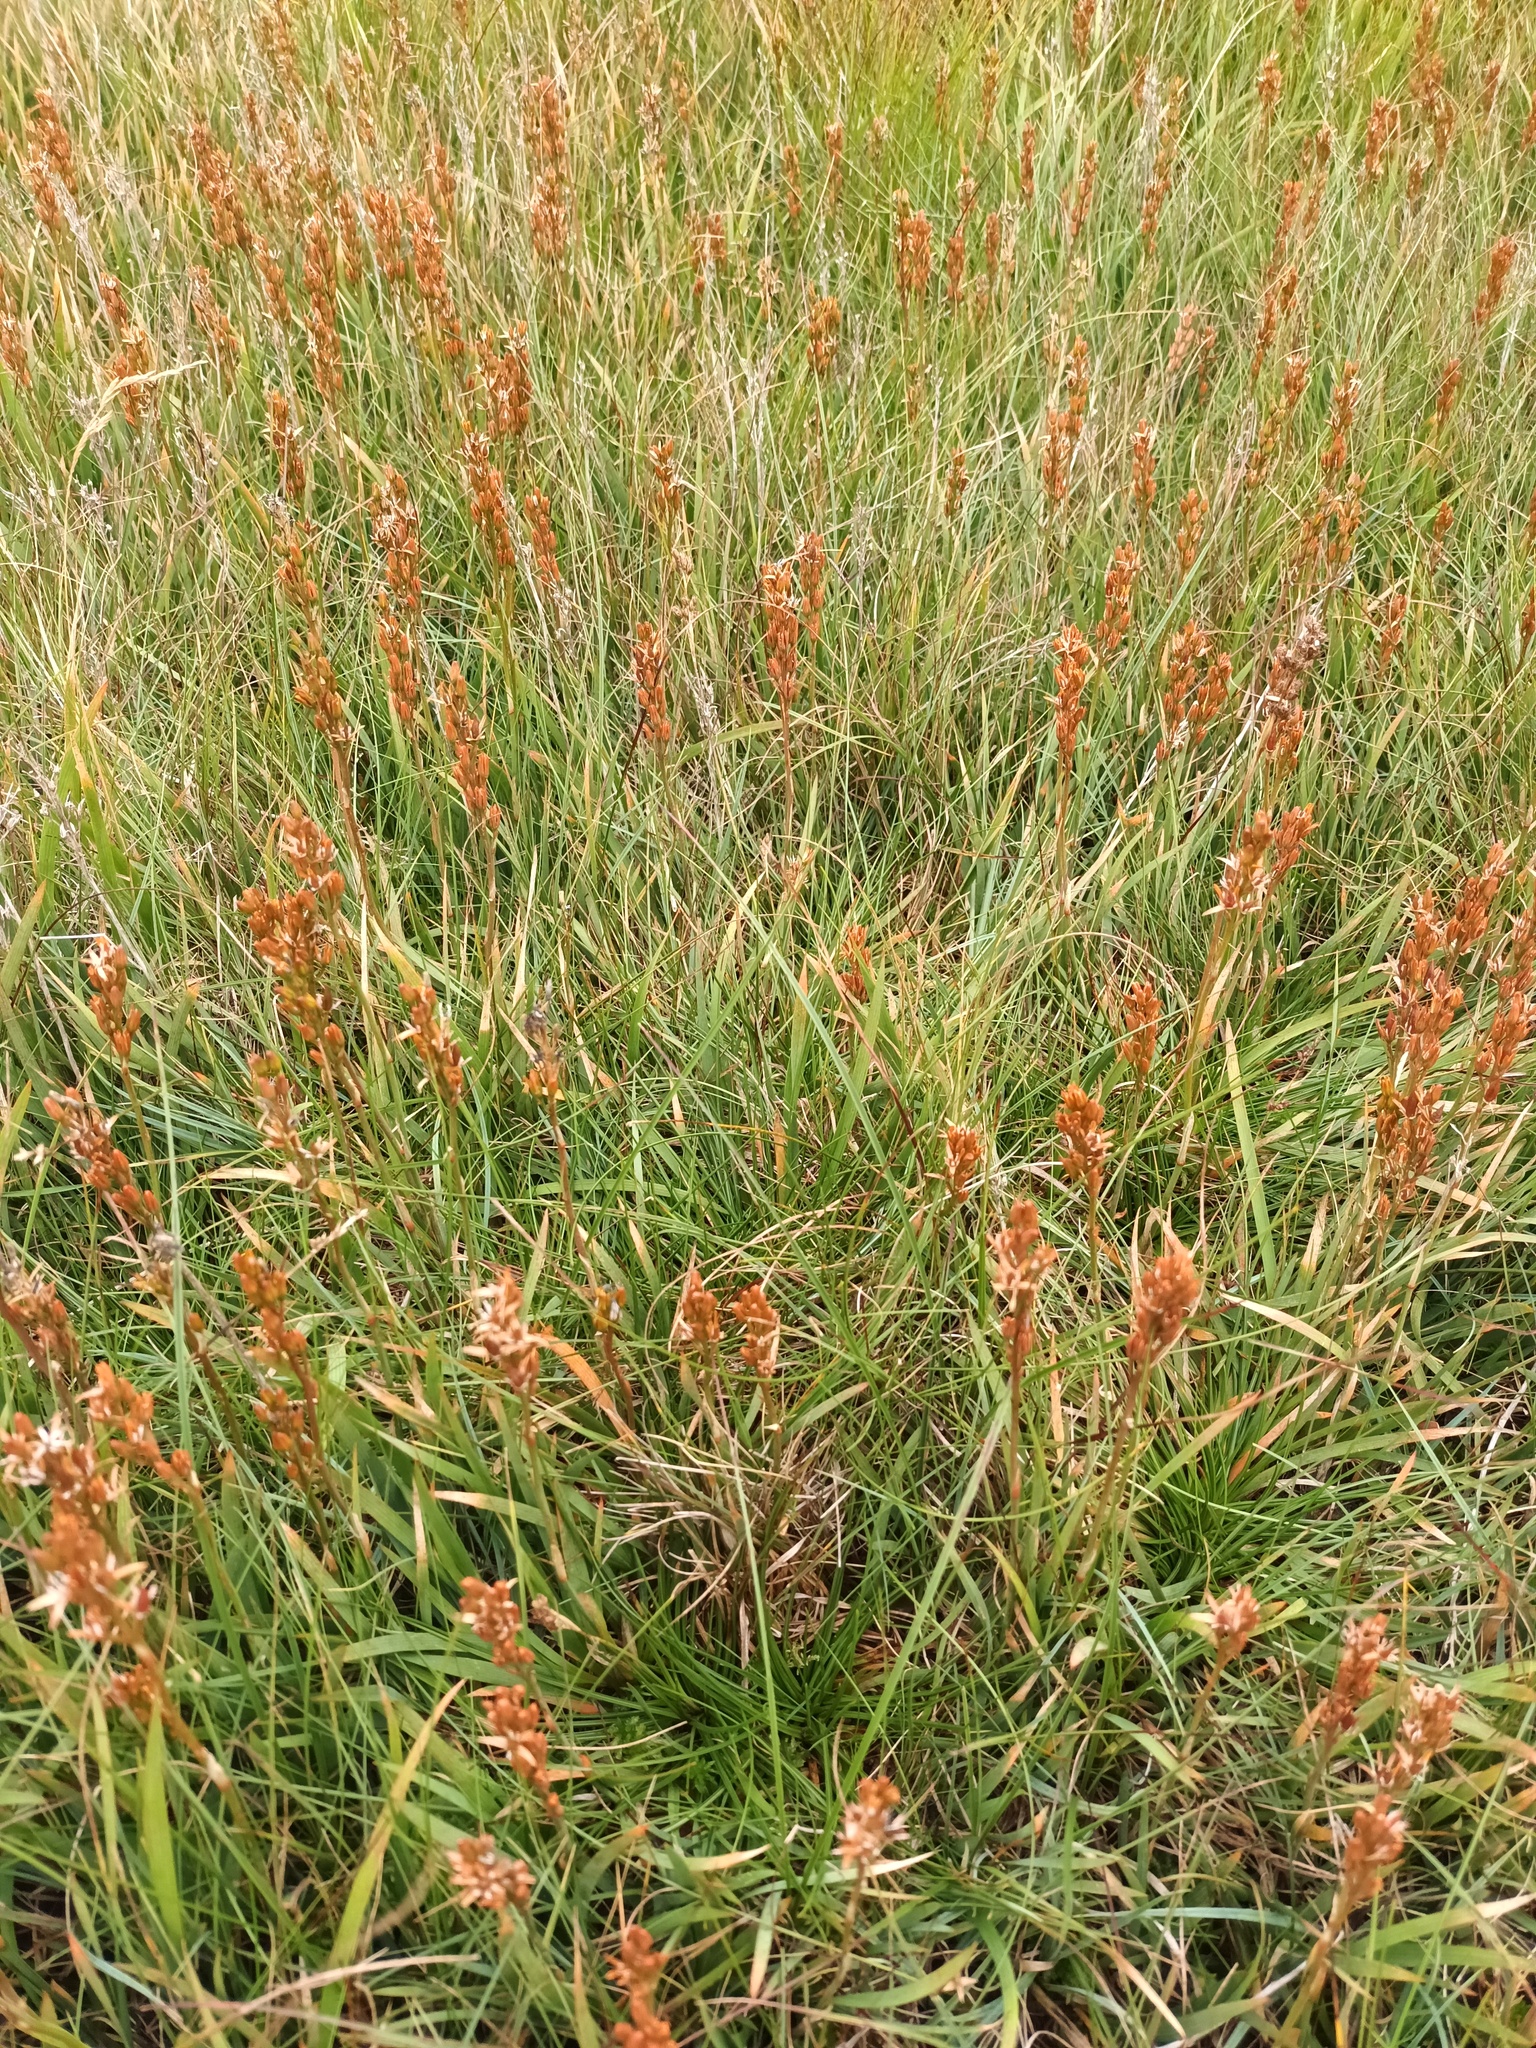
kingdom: Plantae
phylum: Tracheophyta
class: Liliopsida
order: Dioscoreales
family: Nartheciaceae
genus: Narthecium
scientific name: Narthecium ossifragum
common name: Bog asphodel
